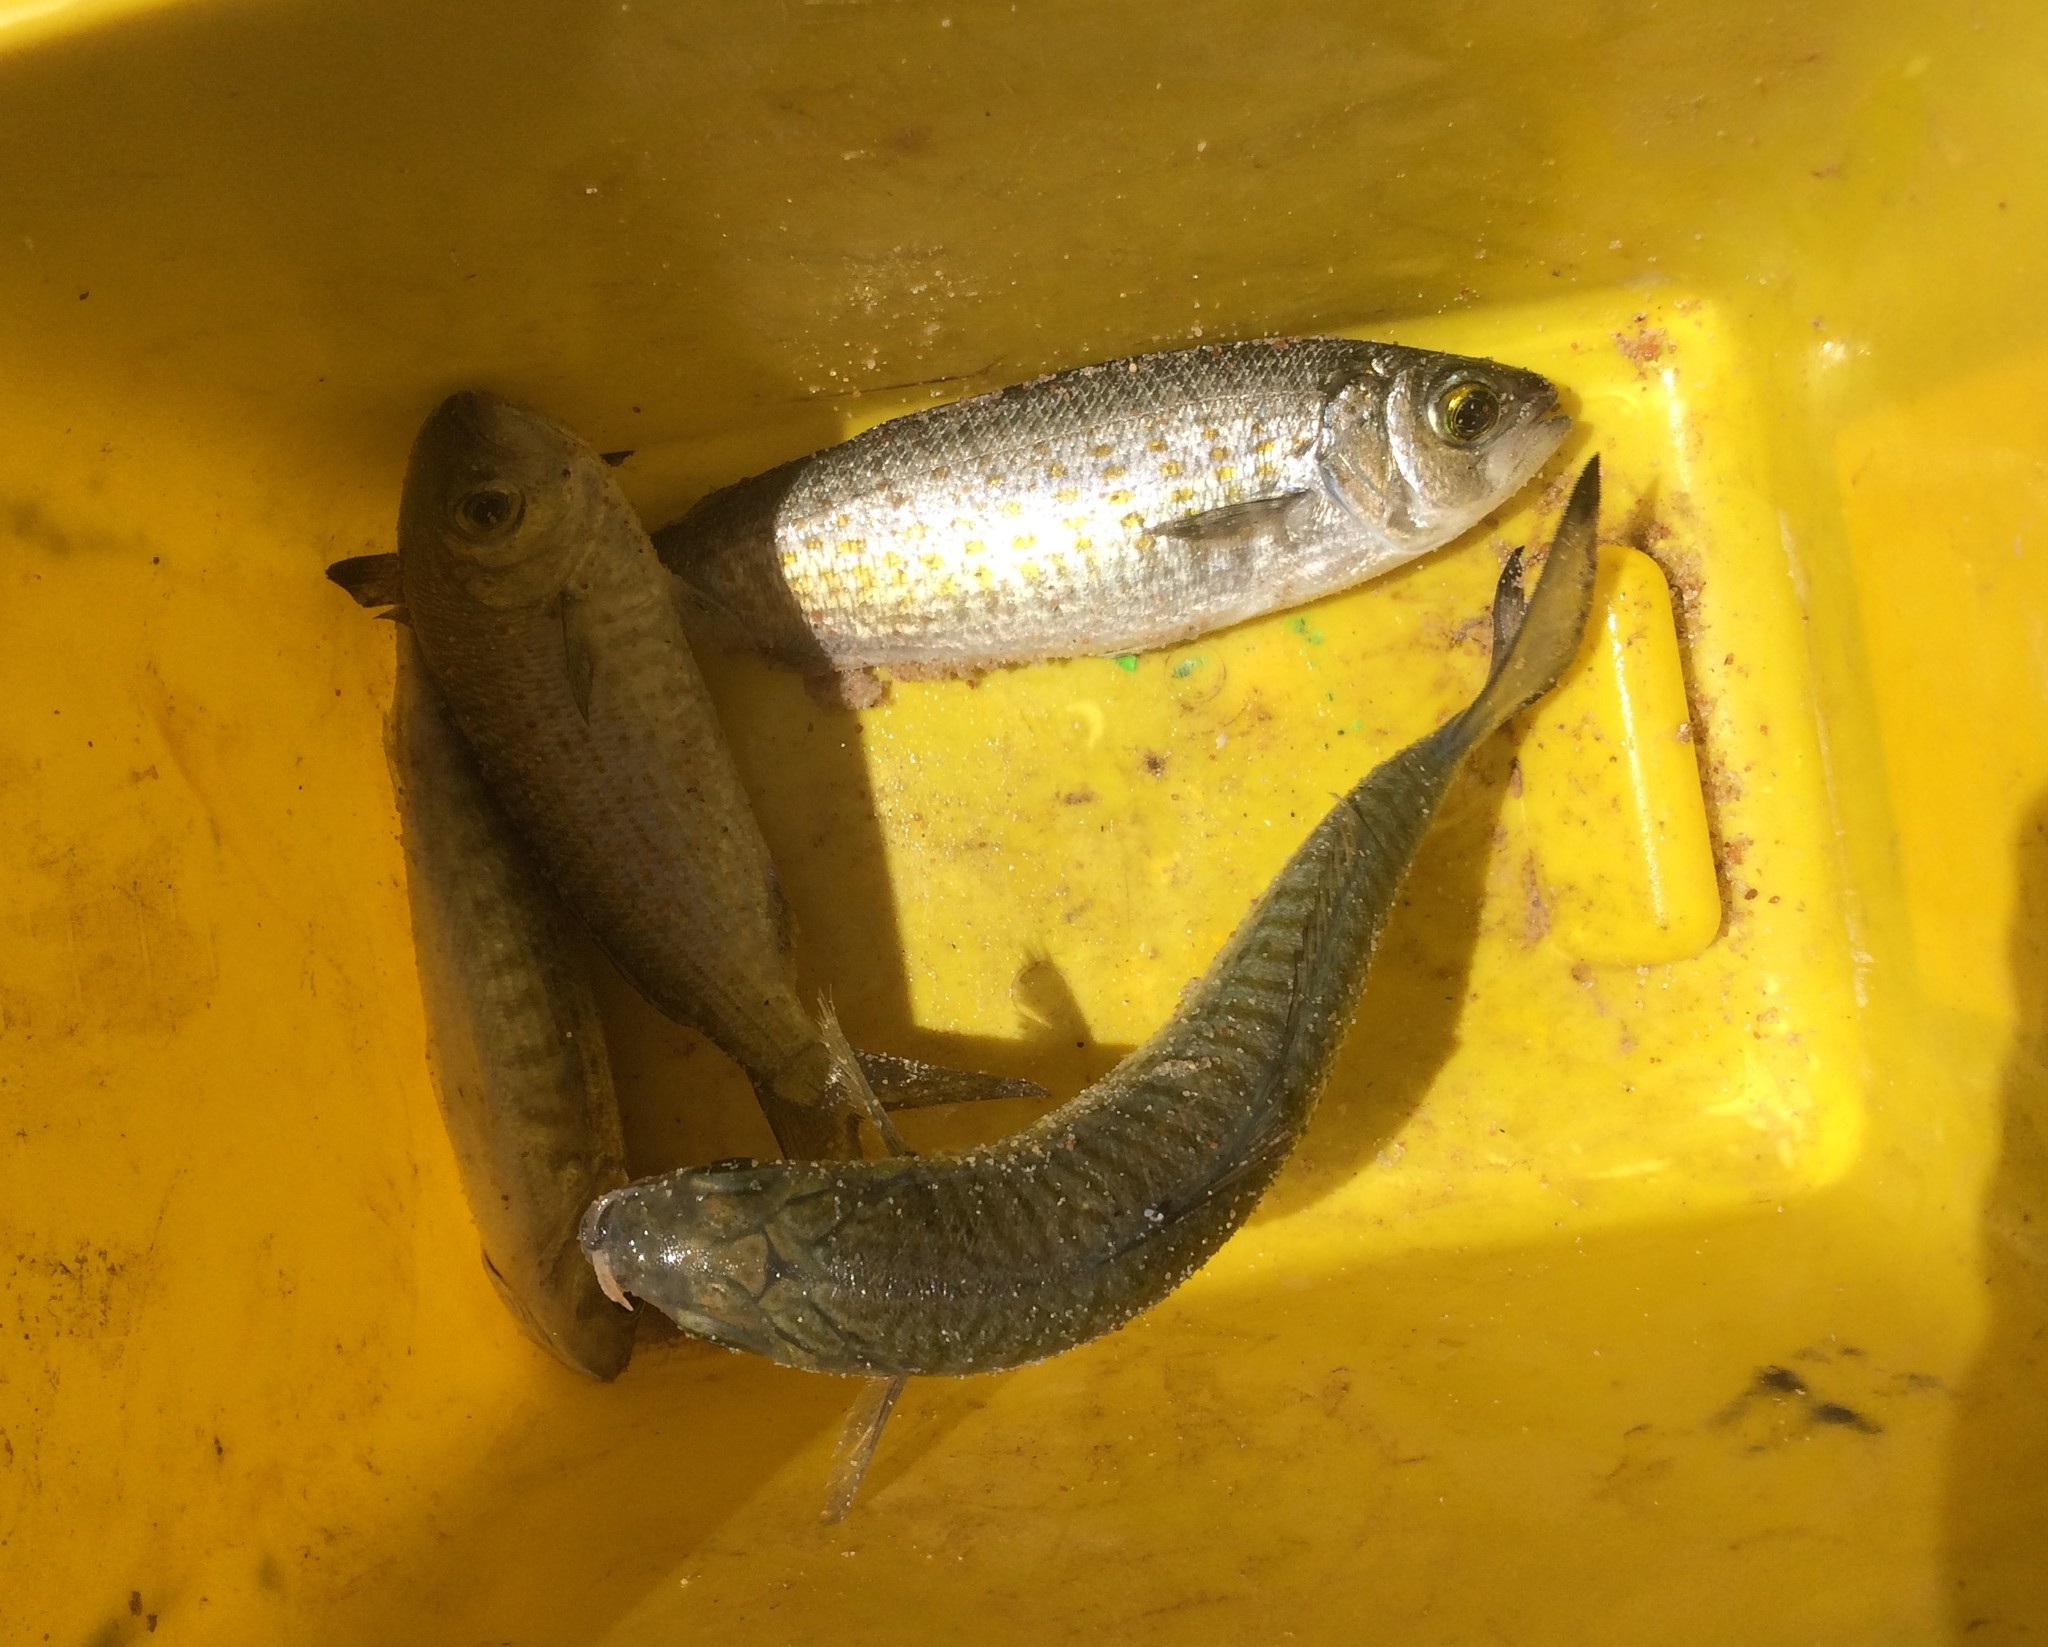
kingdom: Animalia
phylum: Chordata
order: Perciformes
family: Arripidae
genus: Arripis
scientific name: Arripis georgianus
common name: Australian herring
